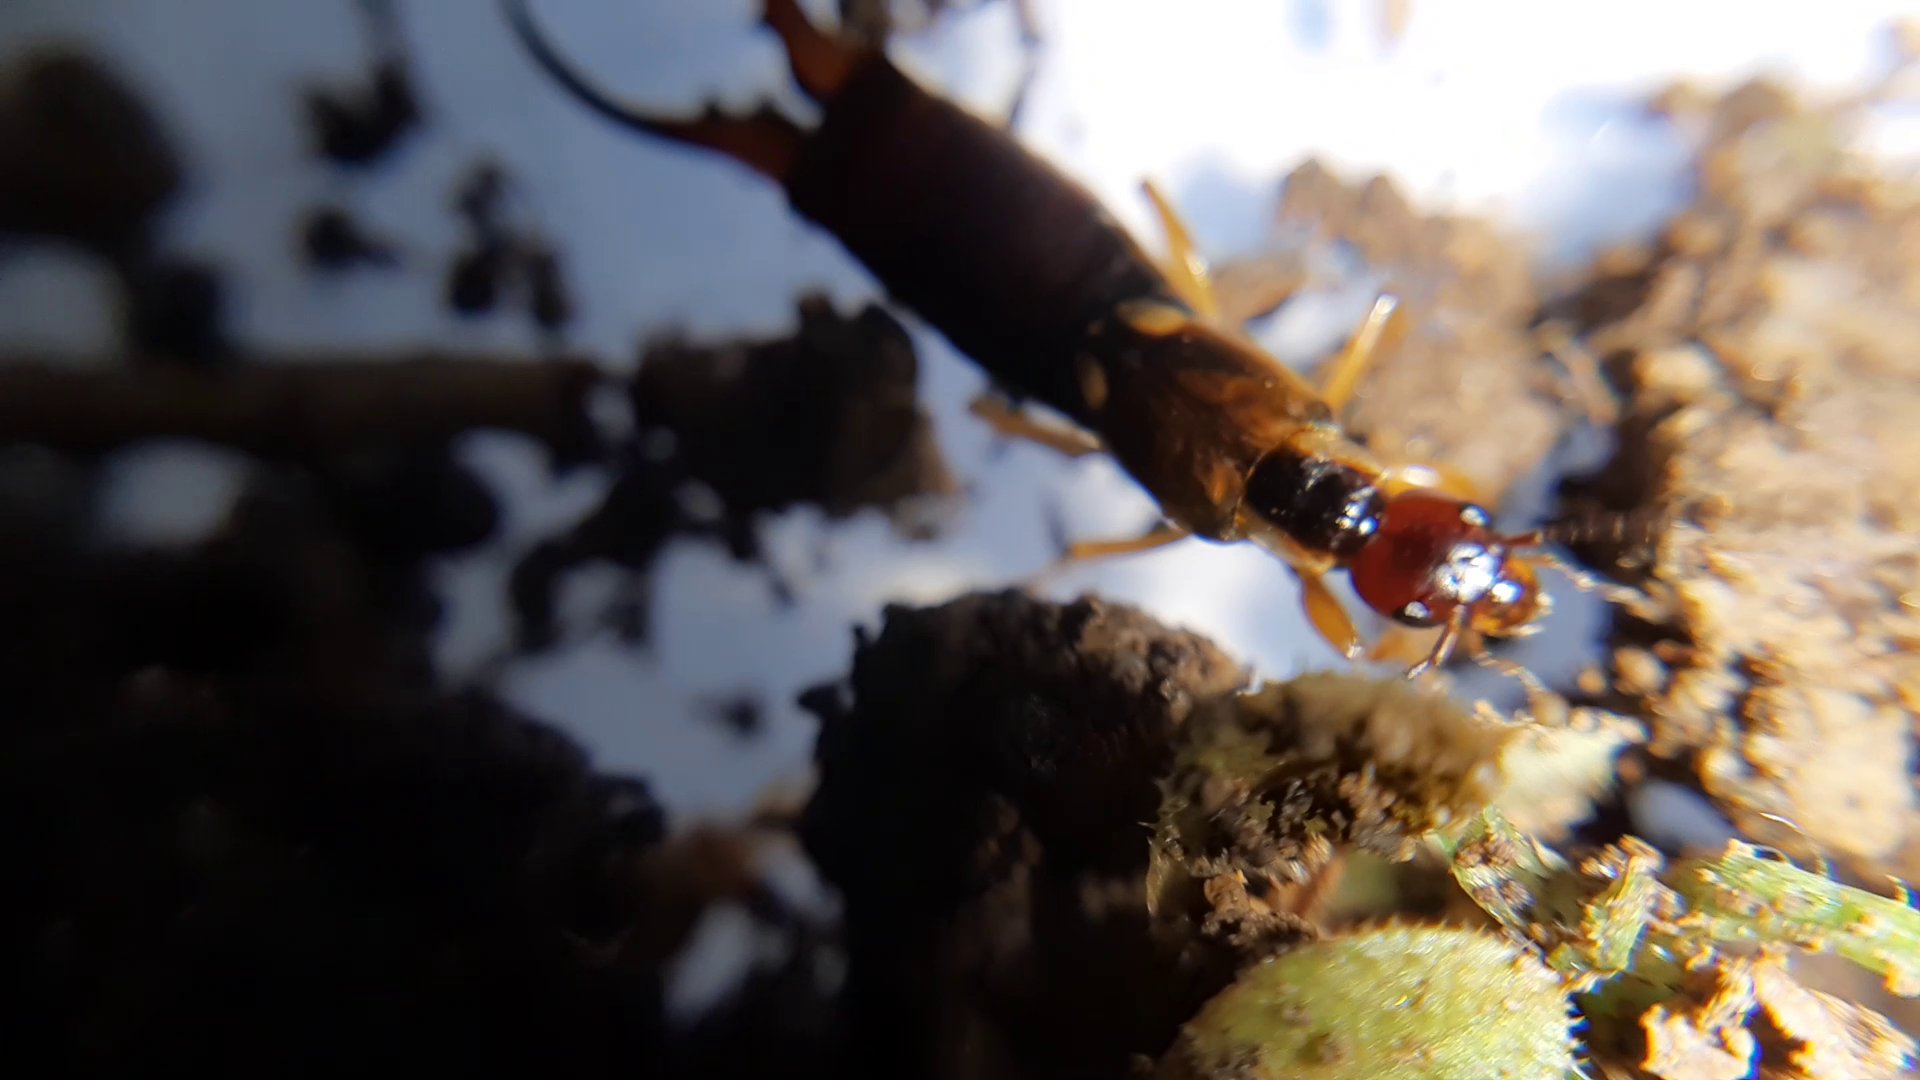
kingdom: Animalia
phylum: Arthropoda
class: Insecta
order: Dermaptera
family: Forficulidae
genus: Forficula
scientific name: Forficula
